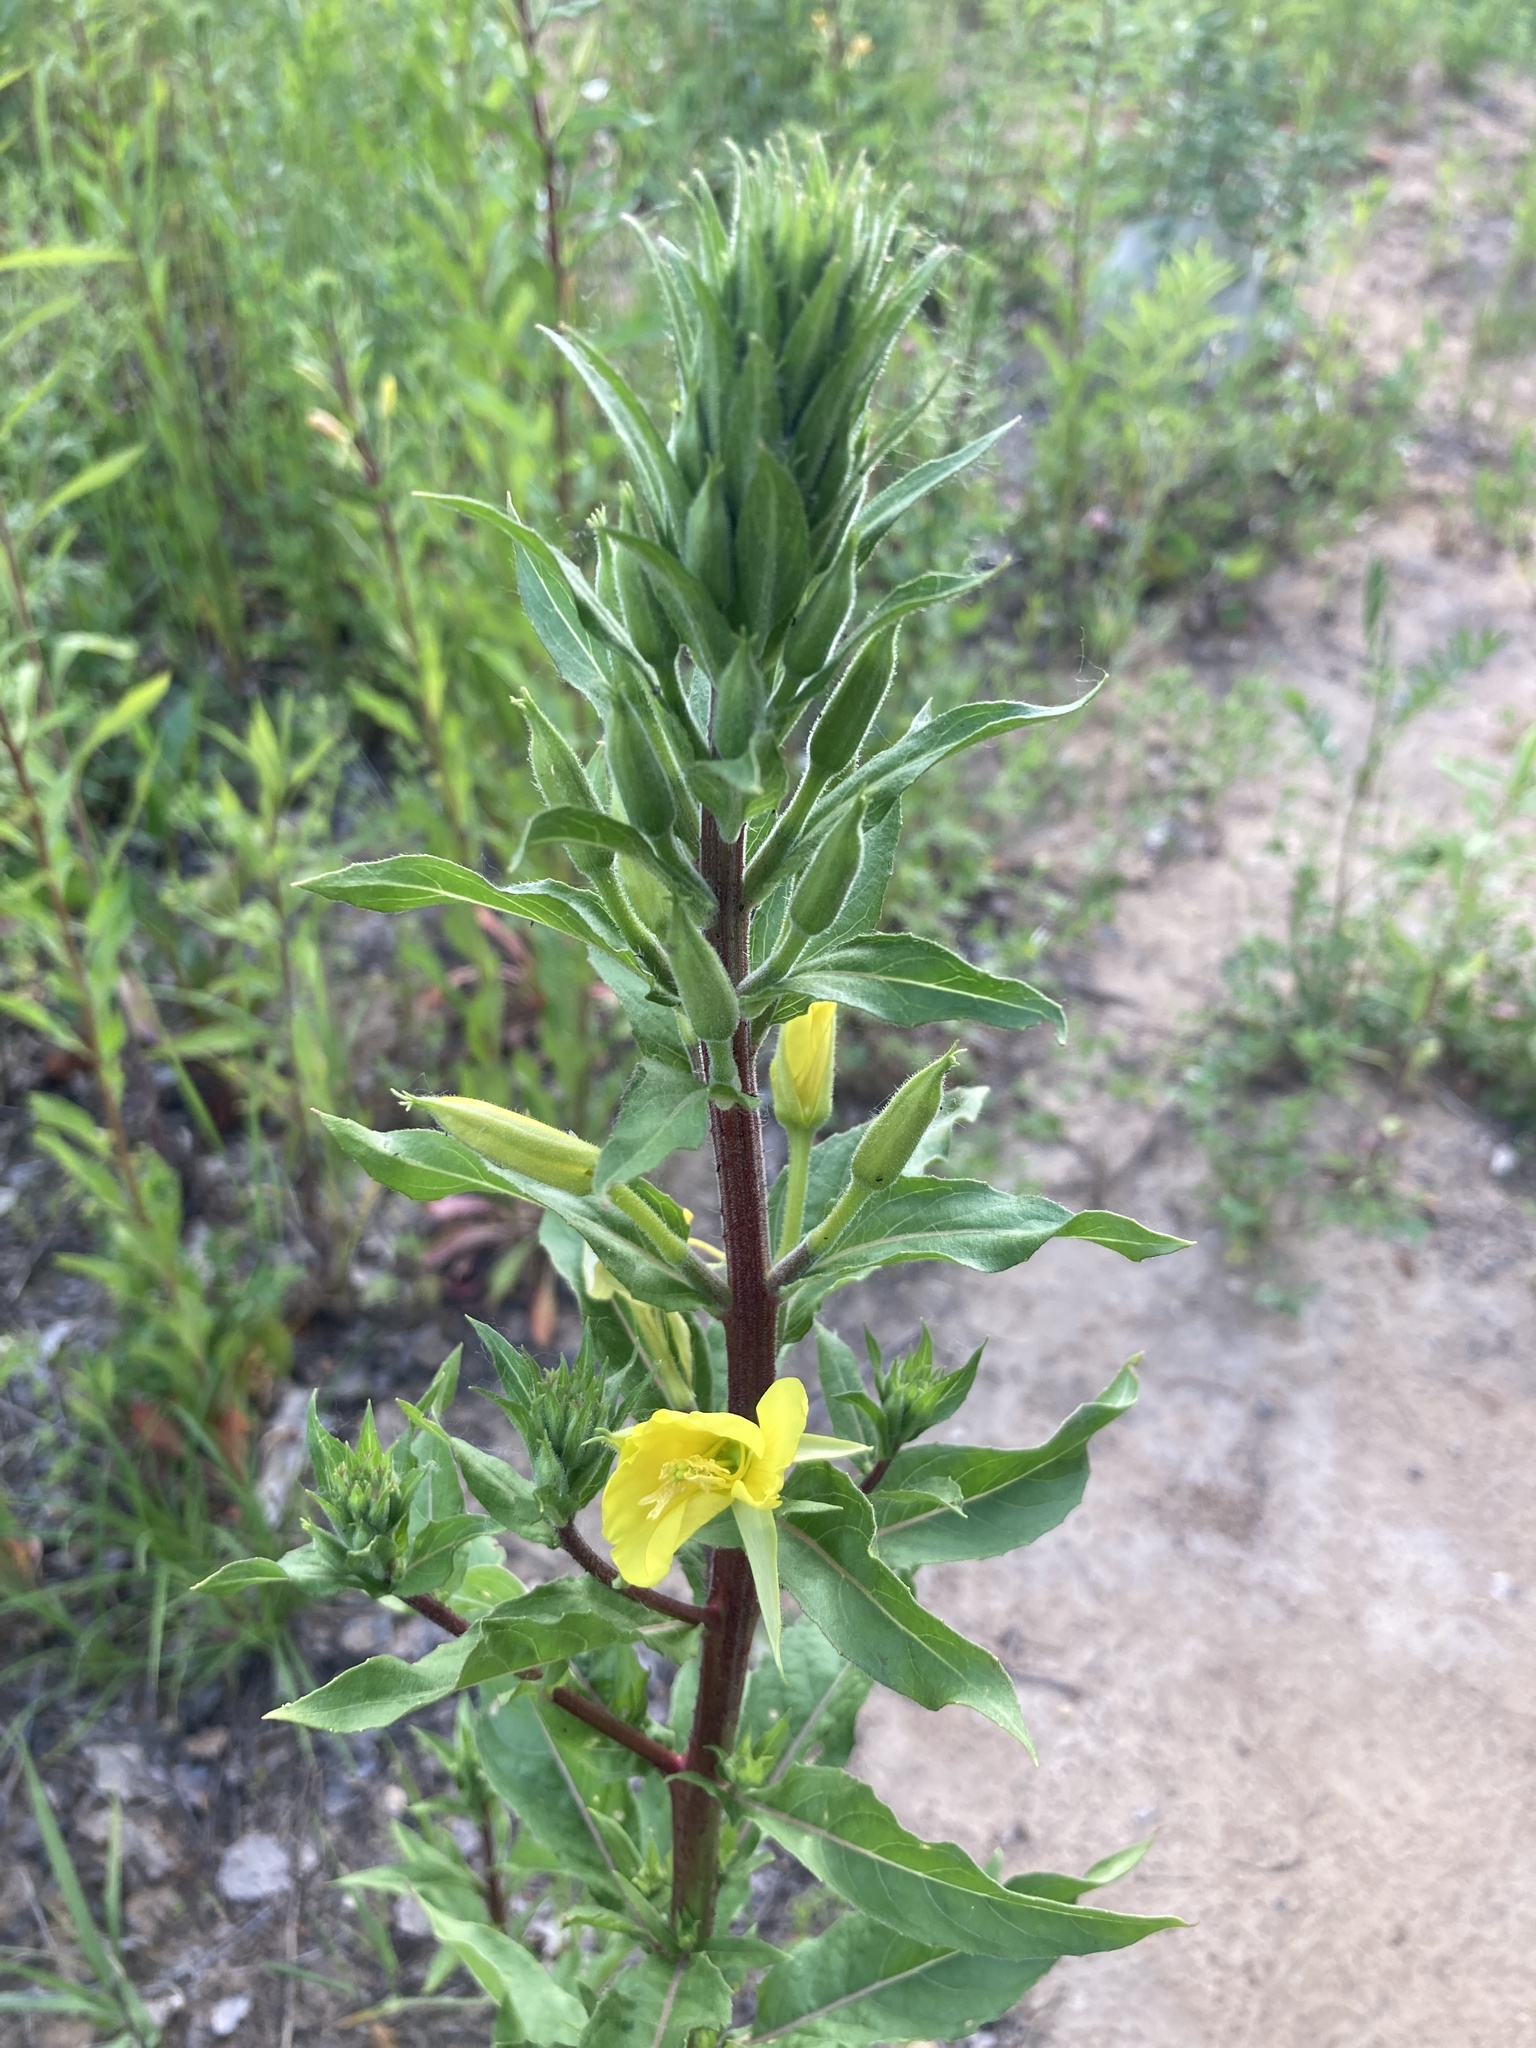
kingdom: Plantae
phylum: Tracheophyta
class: Magnoliopsida
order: Myrtales
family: Onagraceae
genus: Oenothera
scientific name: Oenothera rubricaulis
